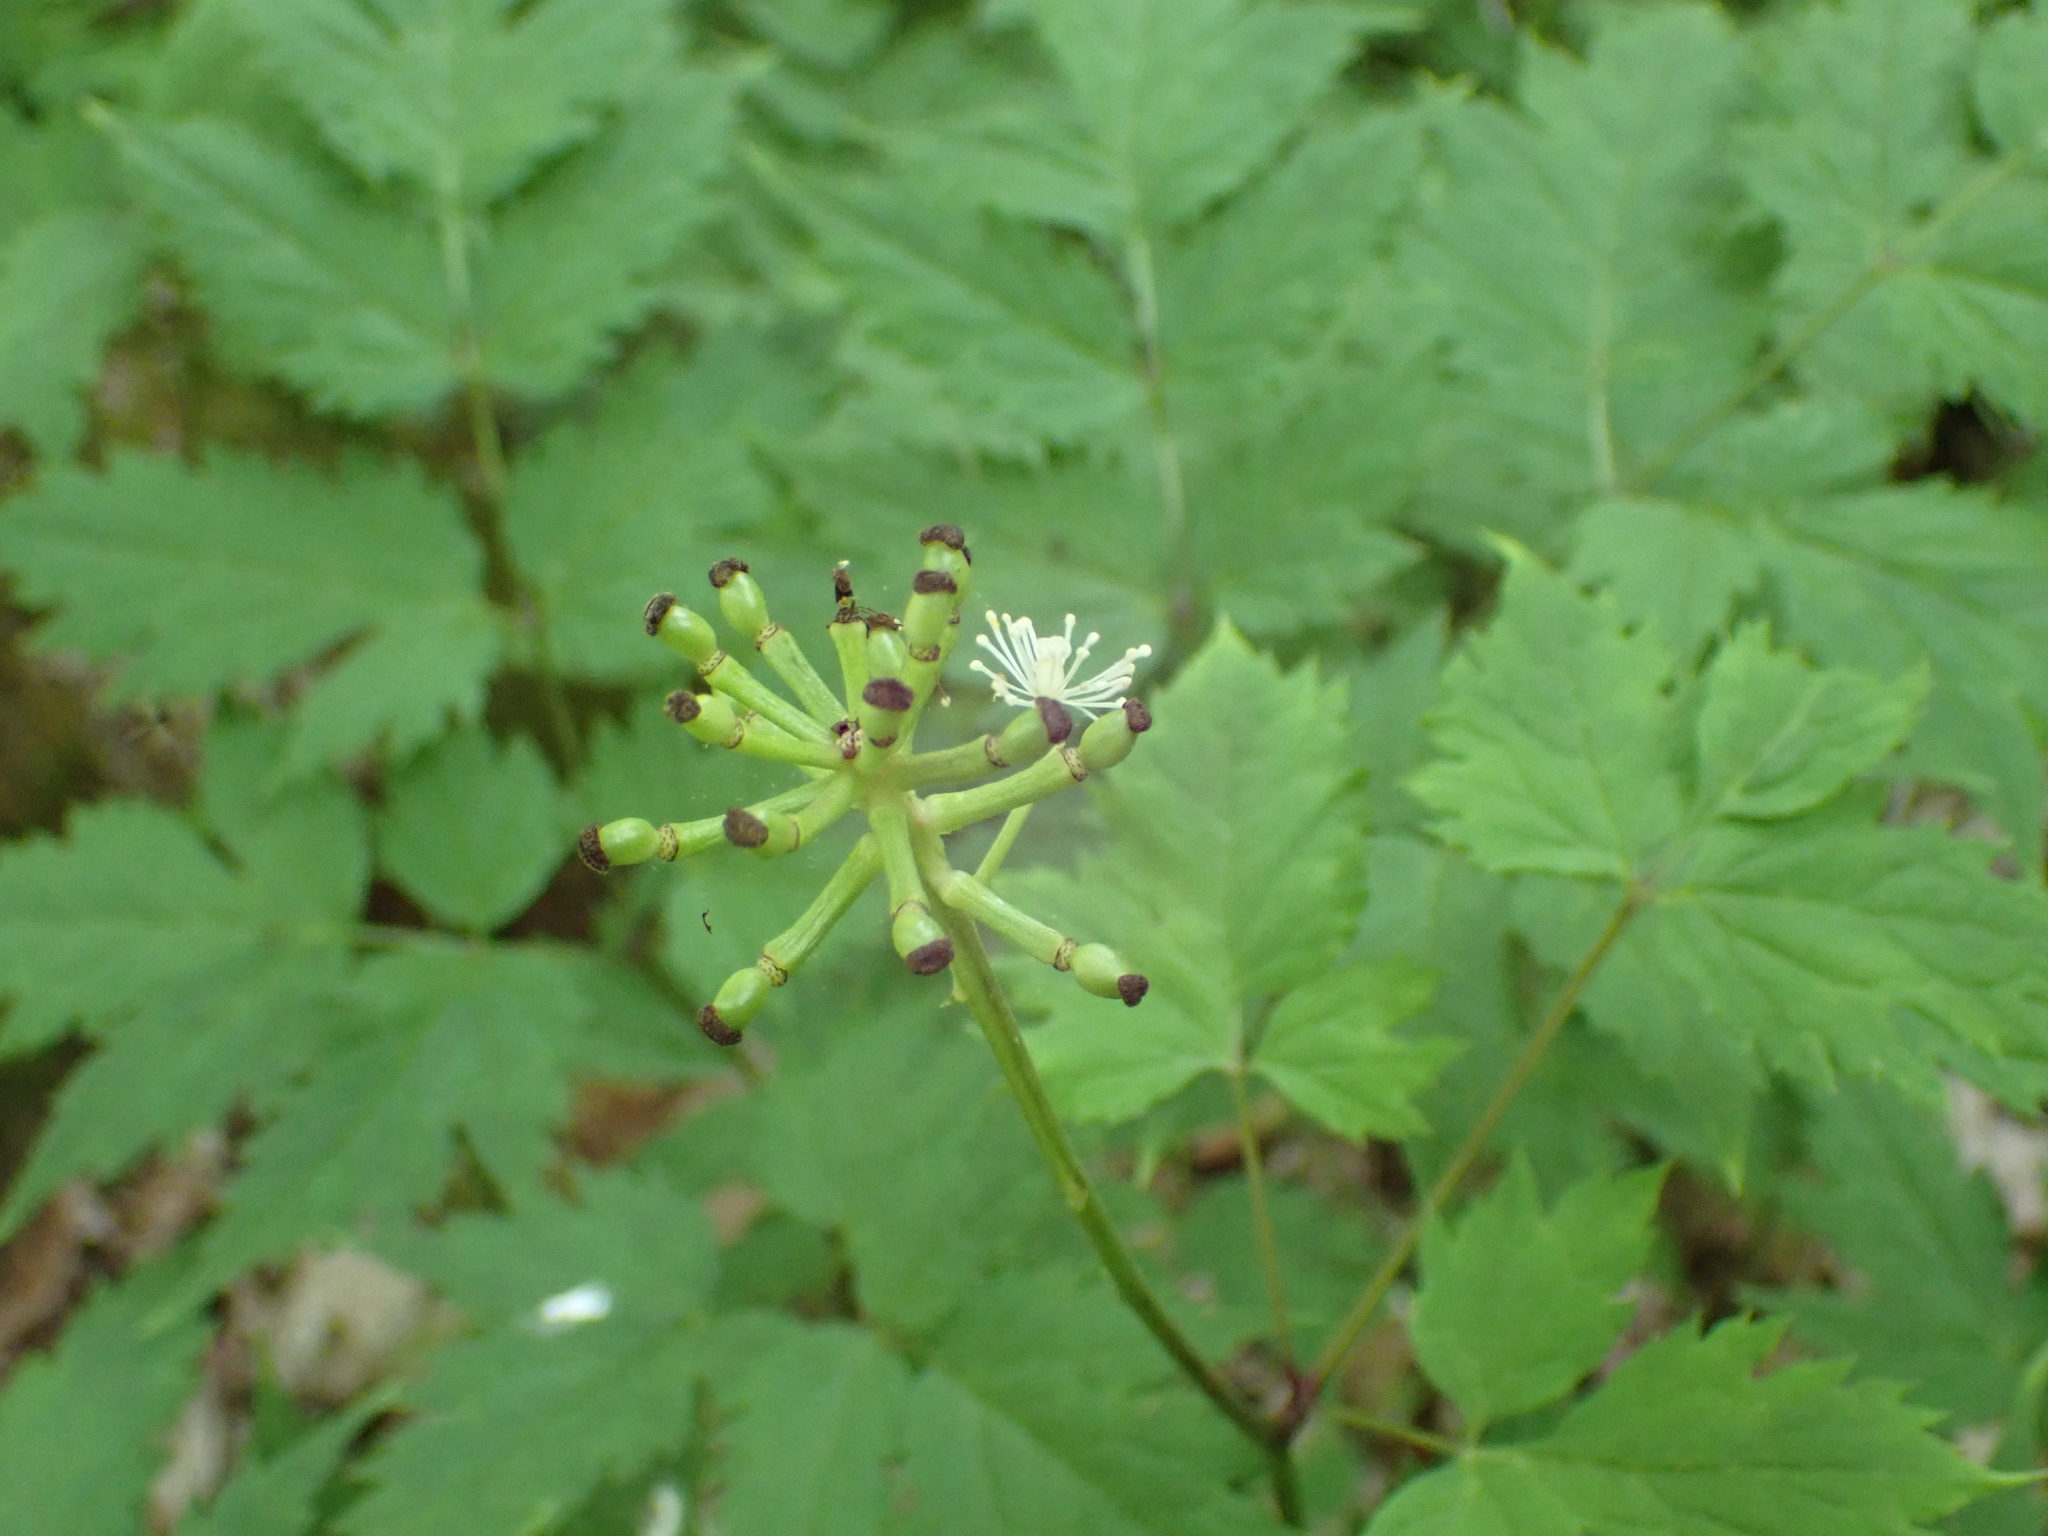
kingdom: Plantae
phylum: Tracheophyta
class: Magnoliopsida
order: Ranunculales
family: Ranunculaceae
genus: Actaea
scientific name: Actaea pachypoda
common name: Doll's-eyes
